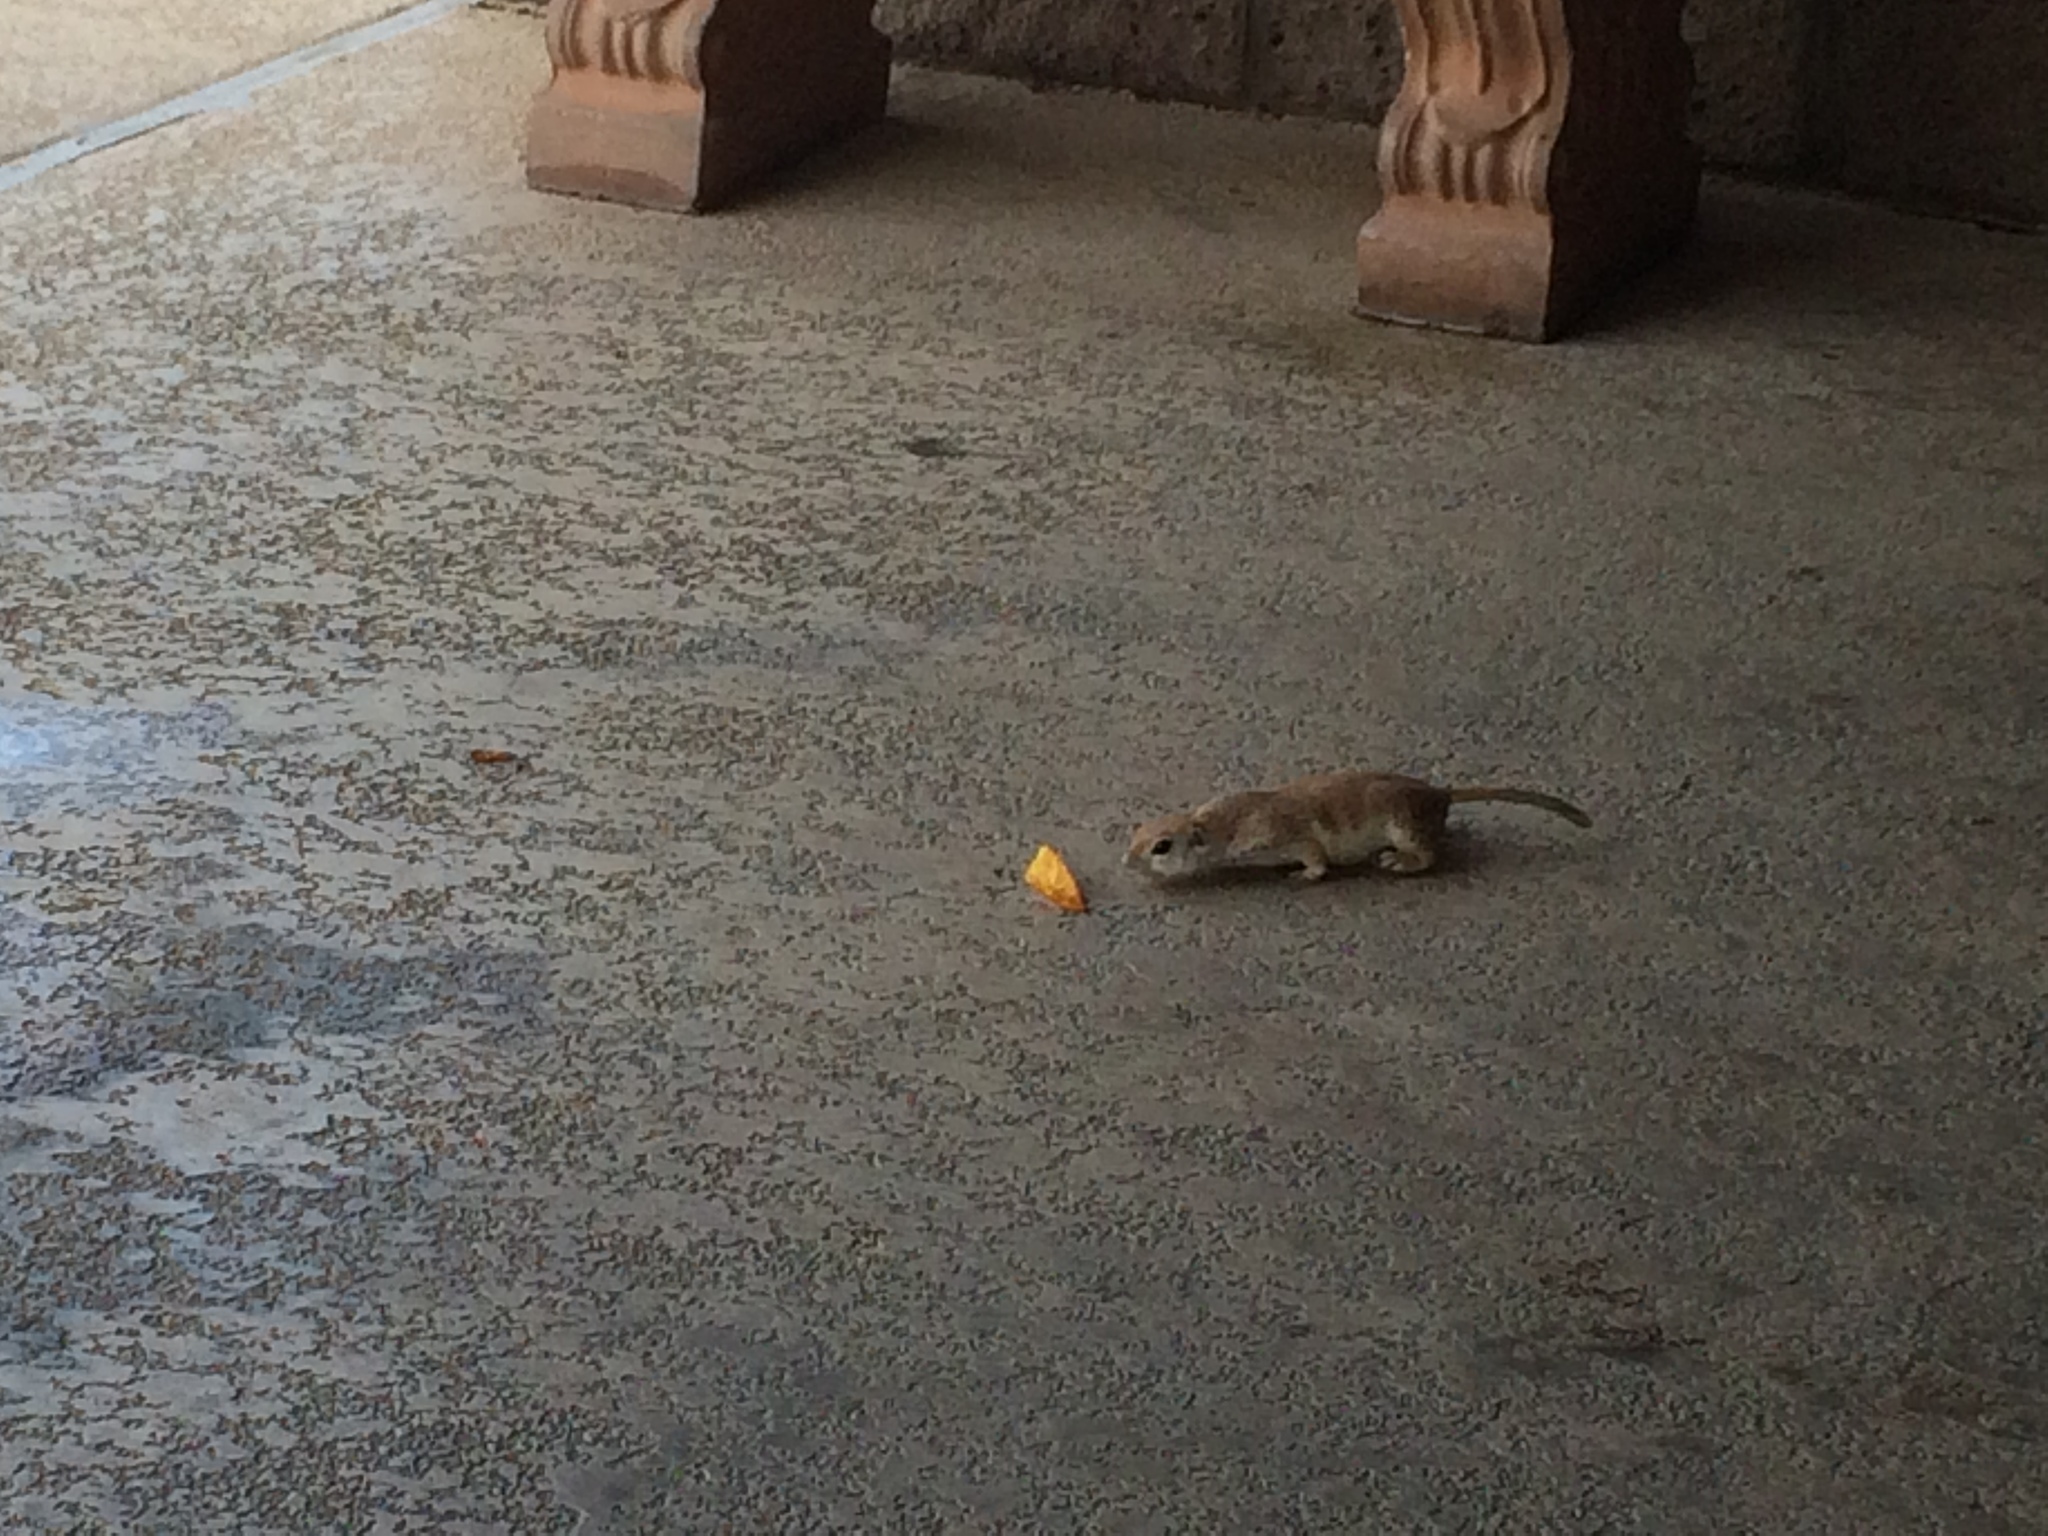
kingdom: Animalia
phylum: Chordata
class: Mammalia
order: Rodentia
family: Sciuridae
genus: Xerospermophilus
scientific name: Xerospermophilus tereticaudus
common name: Round-tailed ground squirrel
